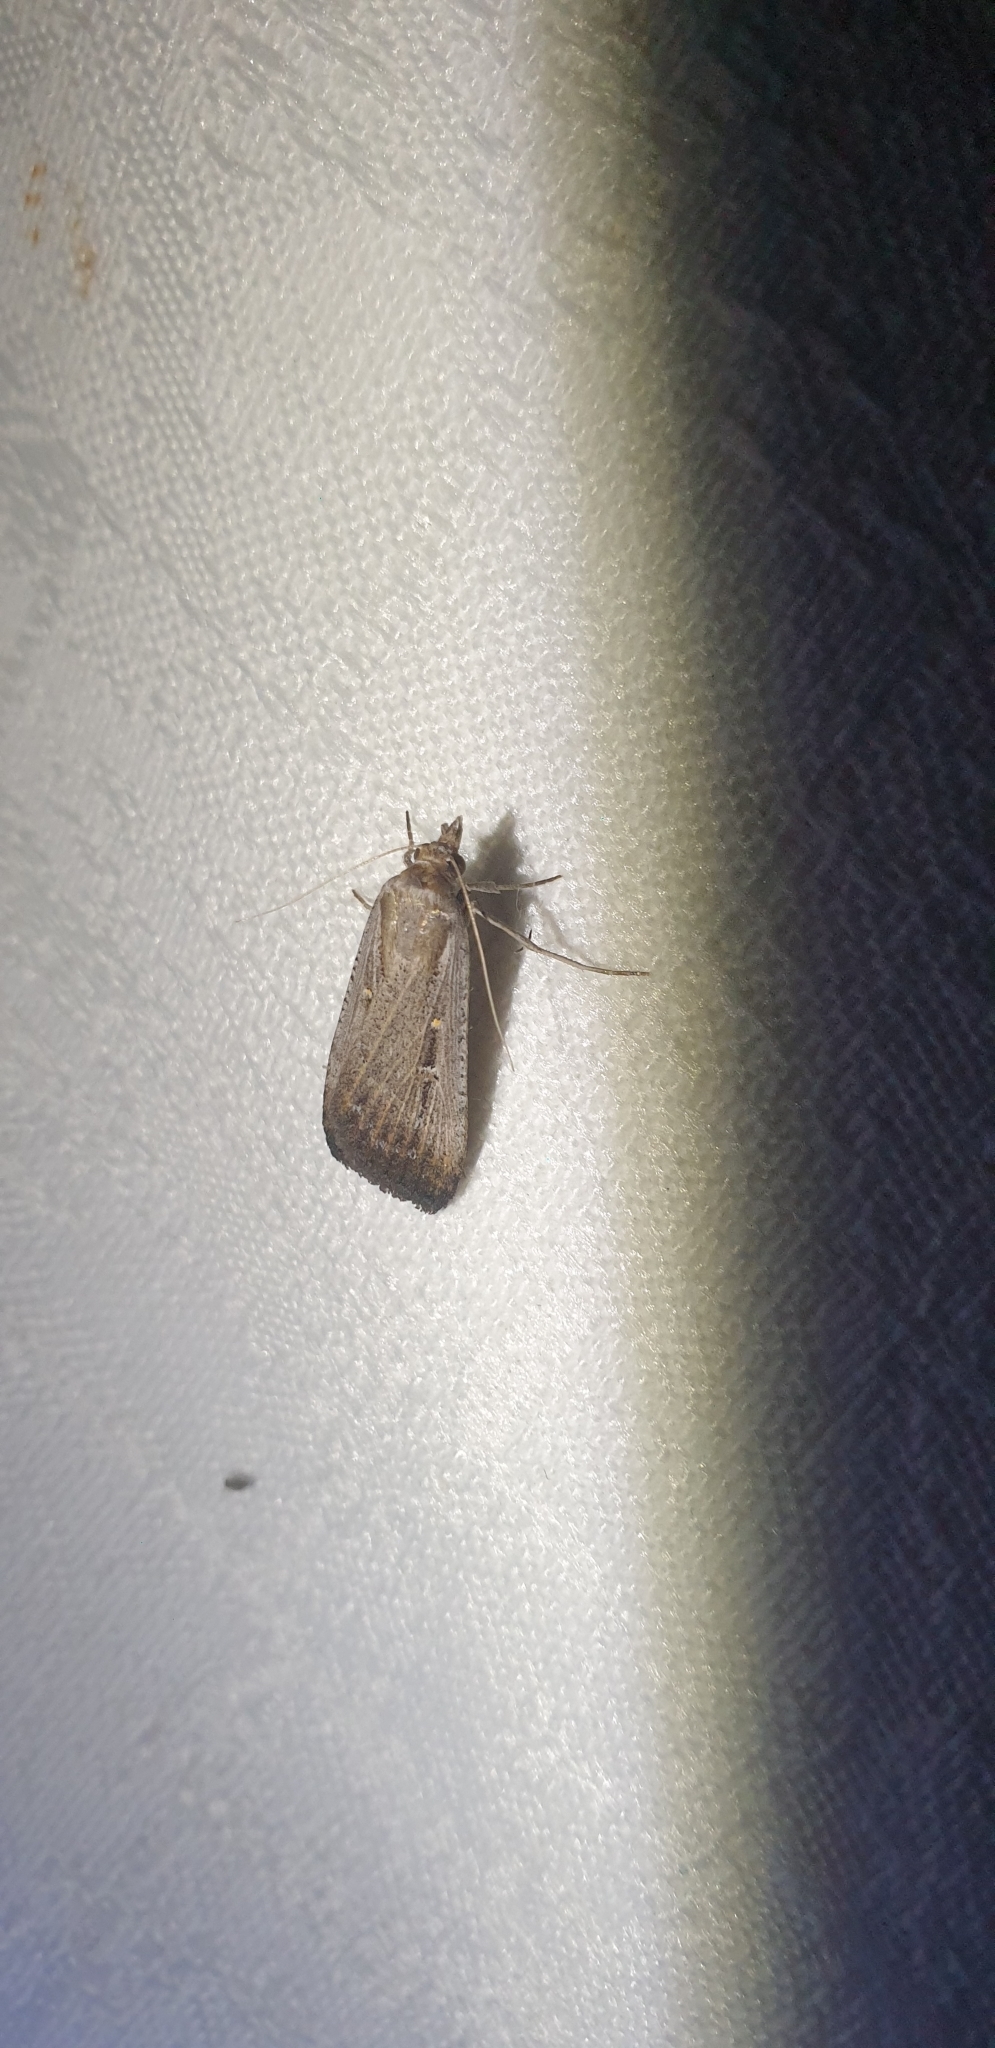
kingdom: Animalia
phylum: Arthropoda
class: Insecta
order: Lepidoptera
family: Noctuidae
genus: Tathorhynchus
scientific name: Tathorhynchus fallax
